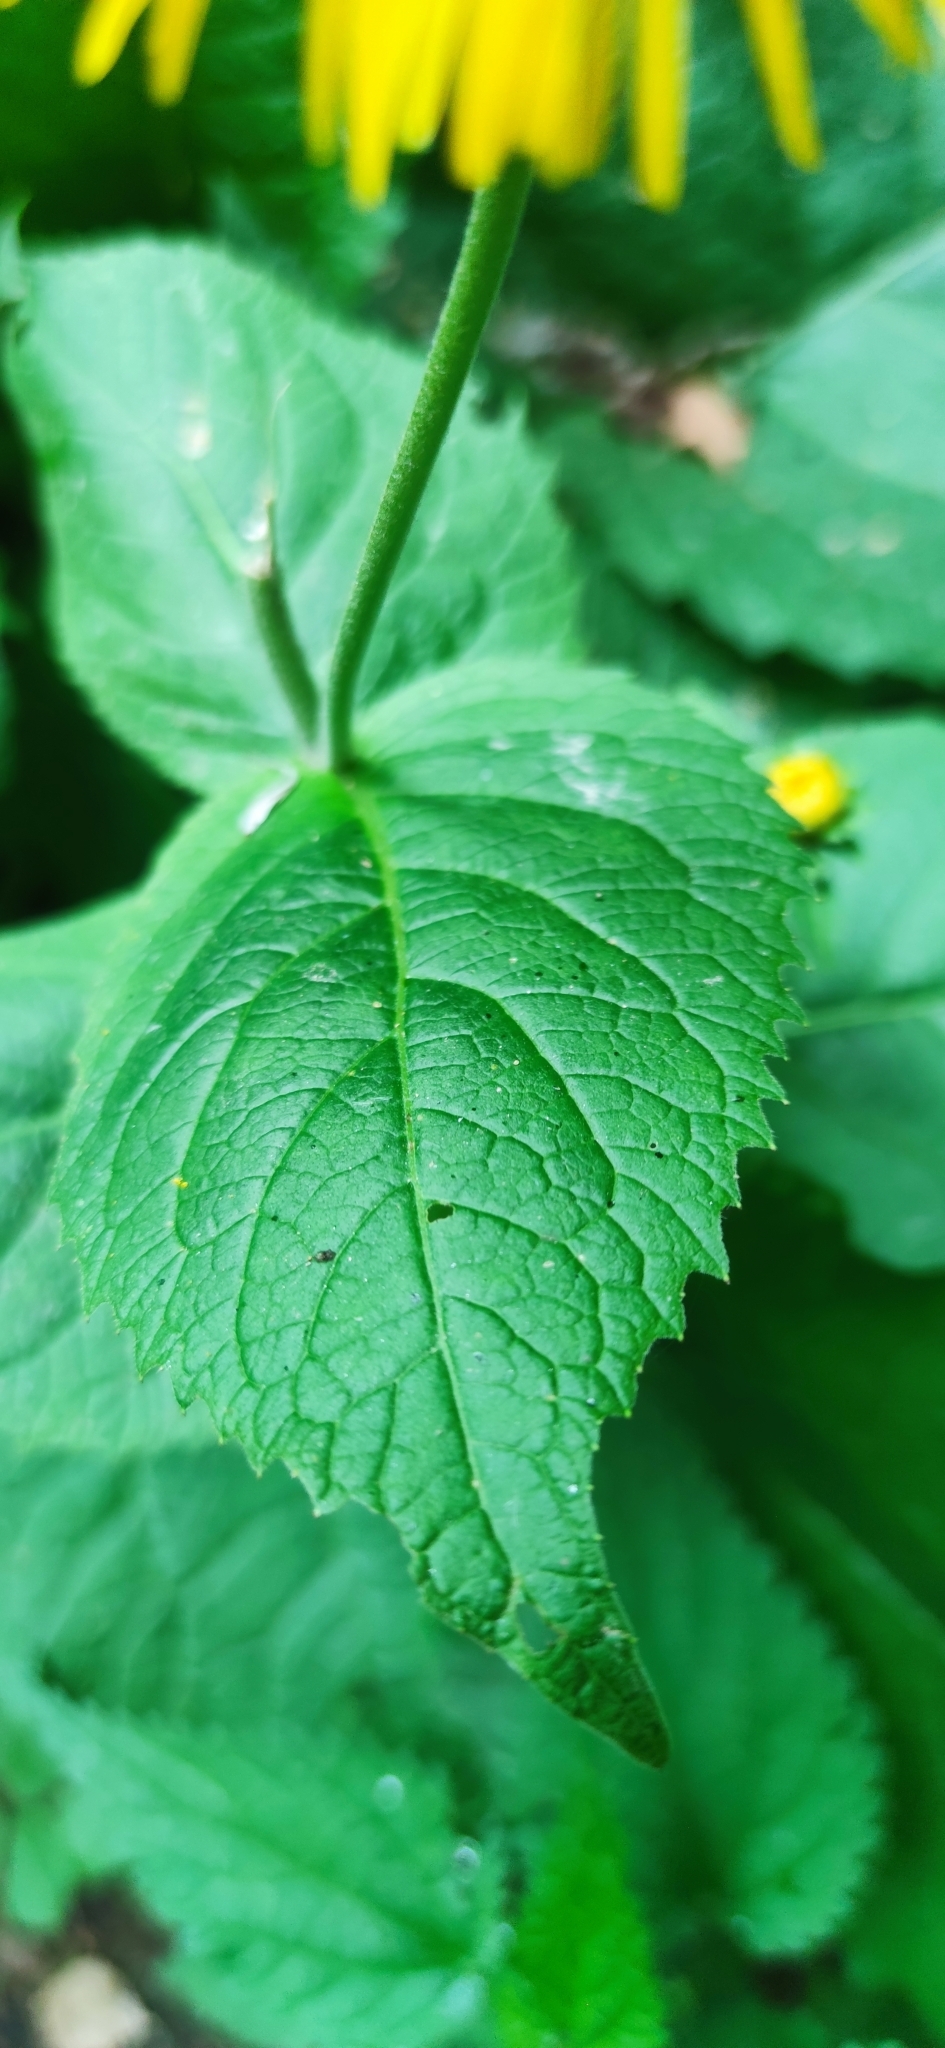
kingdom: Plantae
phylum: Tracheophyta
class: Magnoliopsida
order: Asterales
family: Asteraceae
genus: Telekia
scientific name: Telekia speciosa
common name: Yellow oxeye
